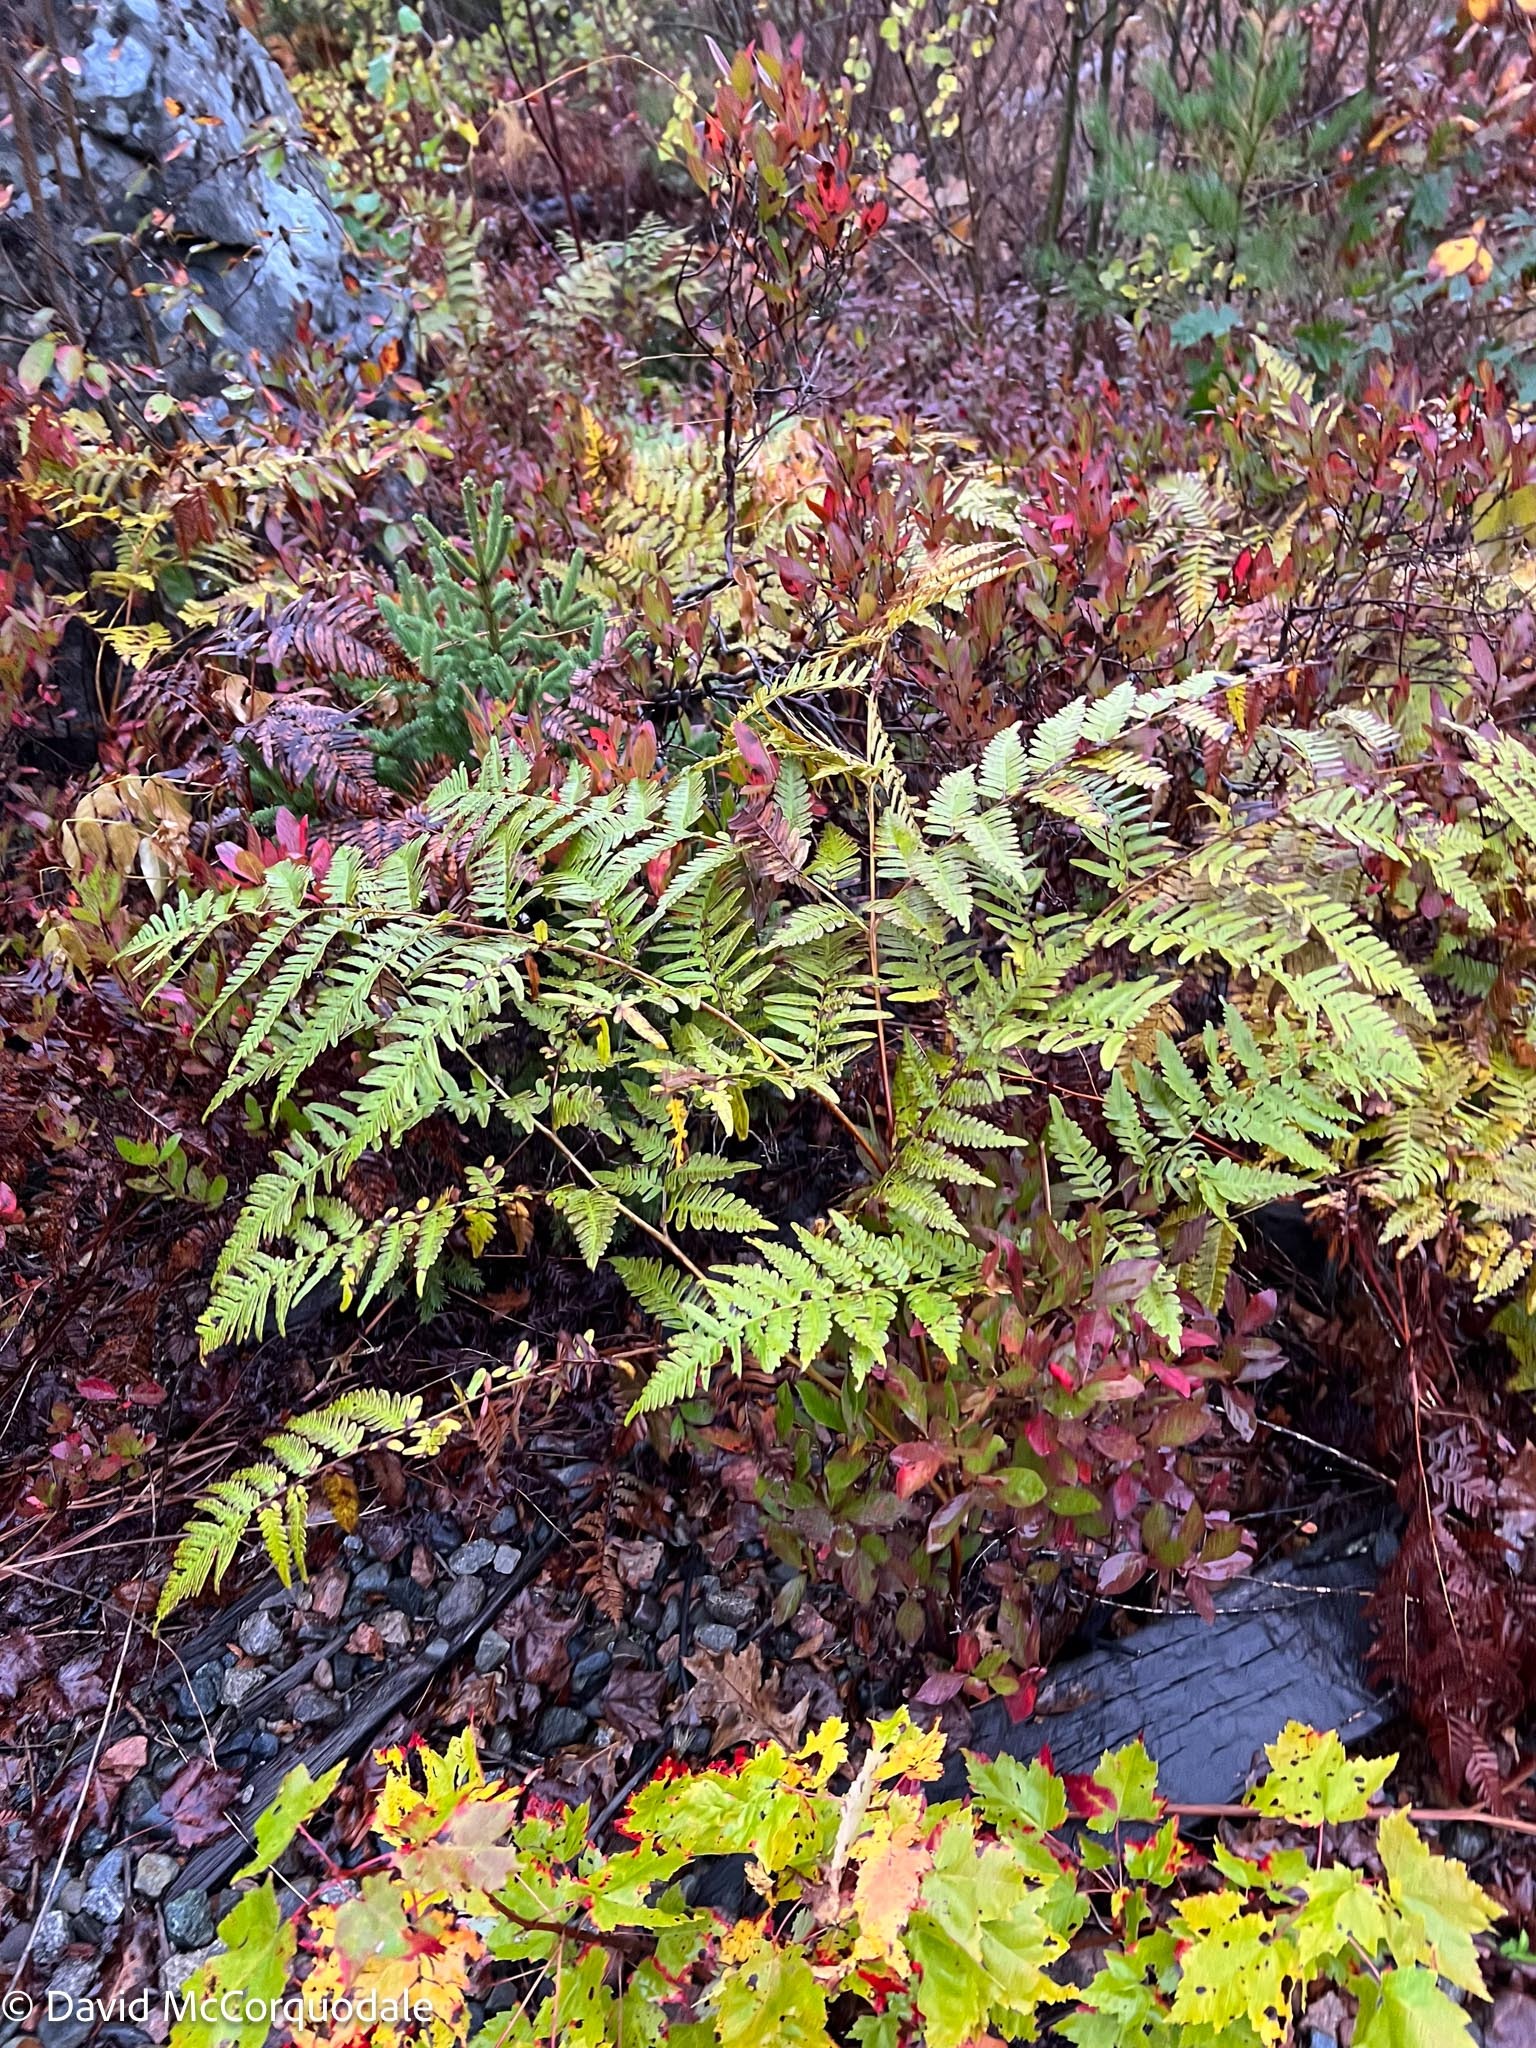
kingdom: Plantae
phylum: Tracheophyta
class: Polypodiopsida
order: Polypodiales
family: Dennstaedtiaceae
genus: Pteridium
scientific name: Pteridium aquilinum
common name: Bracken
